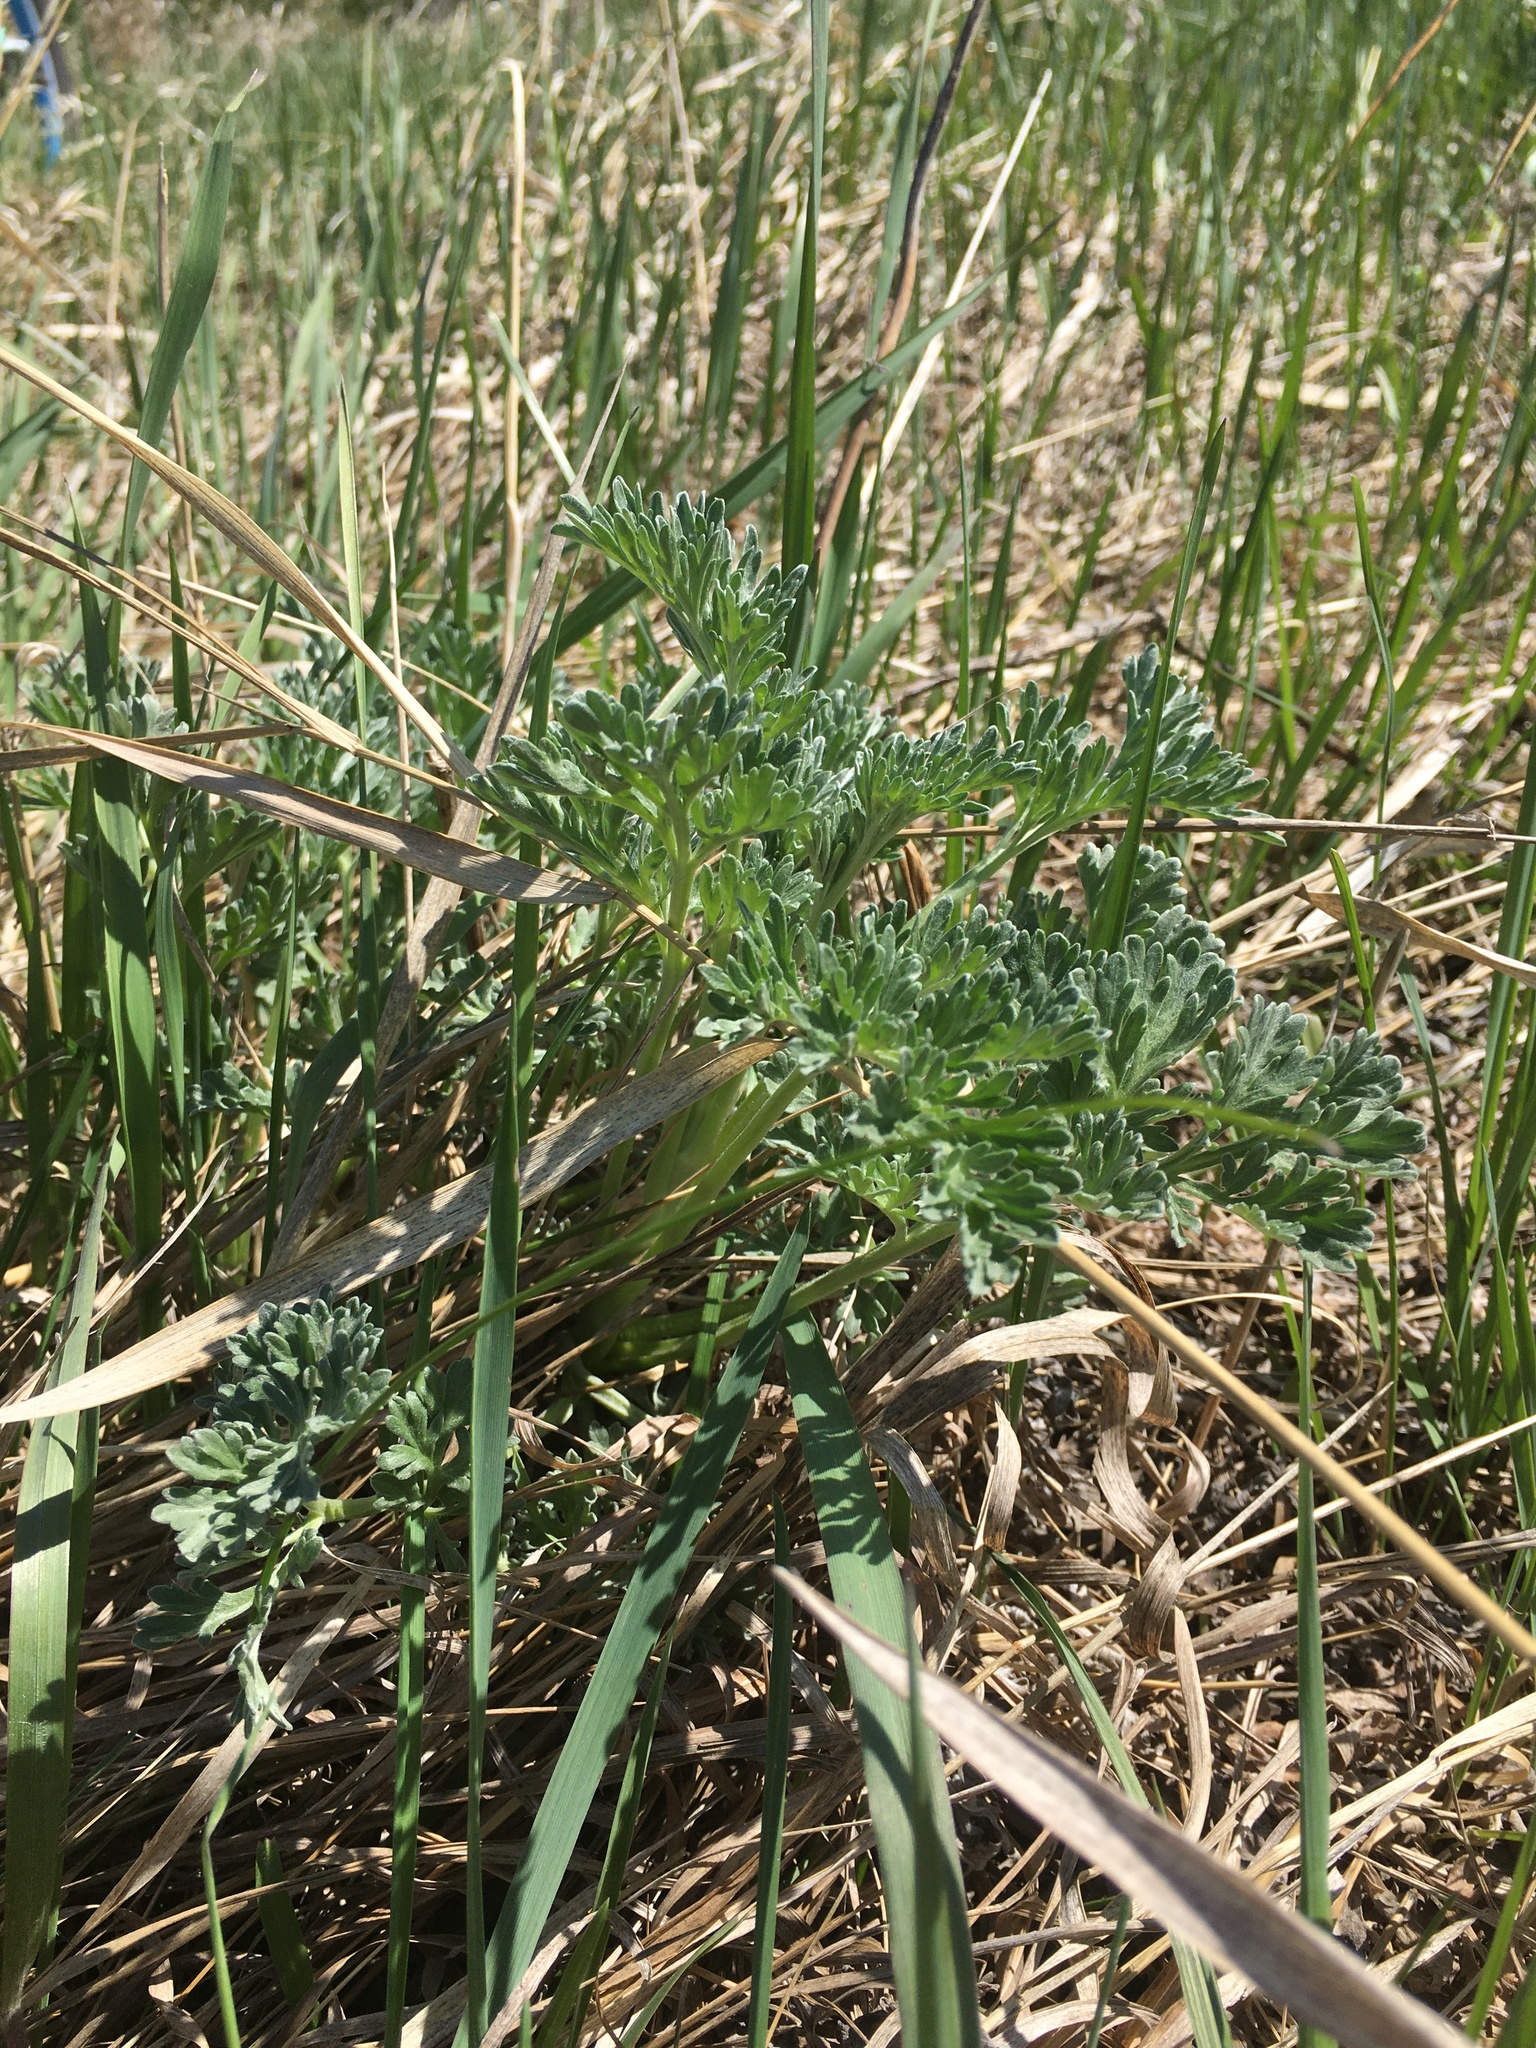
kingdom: Plantae
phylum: Tracheophyta
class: Magnoliopsida
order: Asterales
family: Asteraceae
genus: Artemisia
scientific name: Artemisia absinthium
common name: Wormwood
